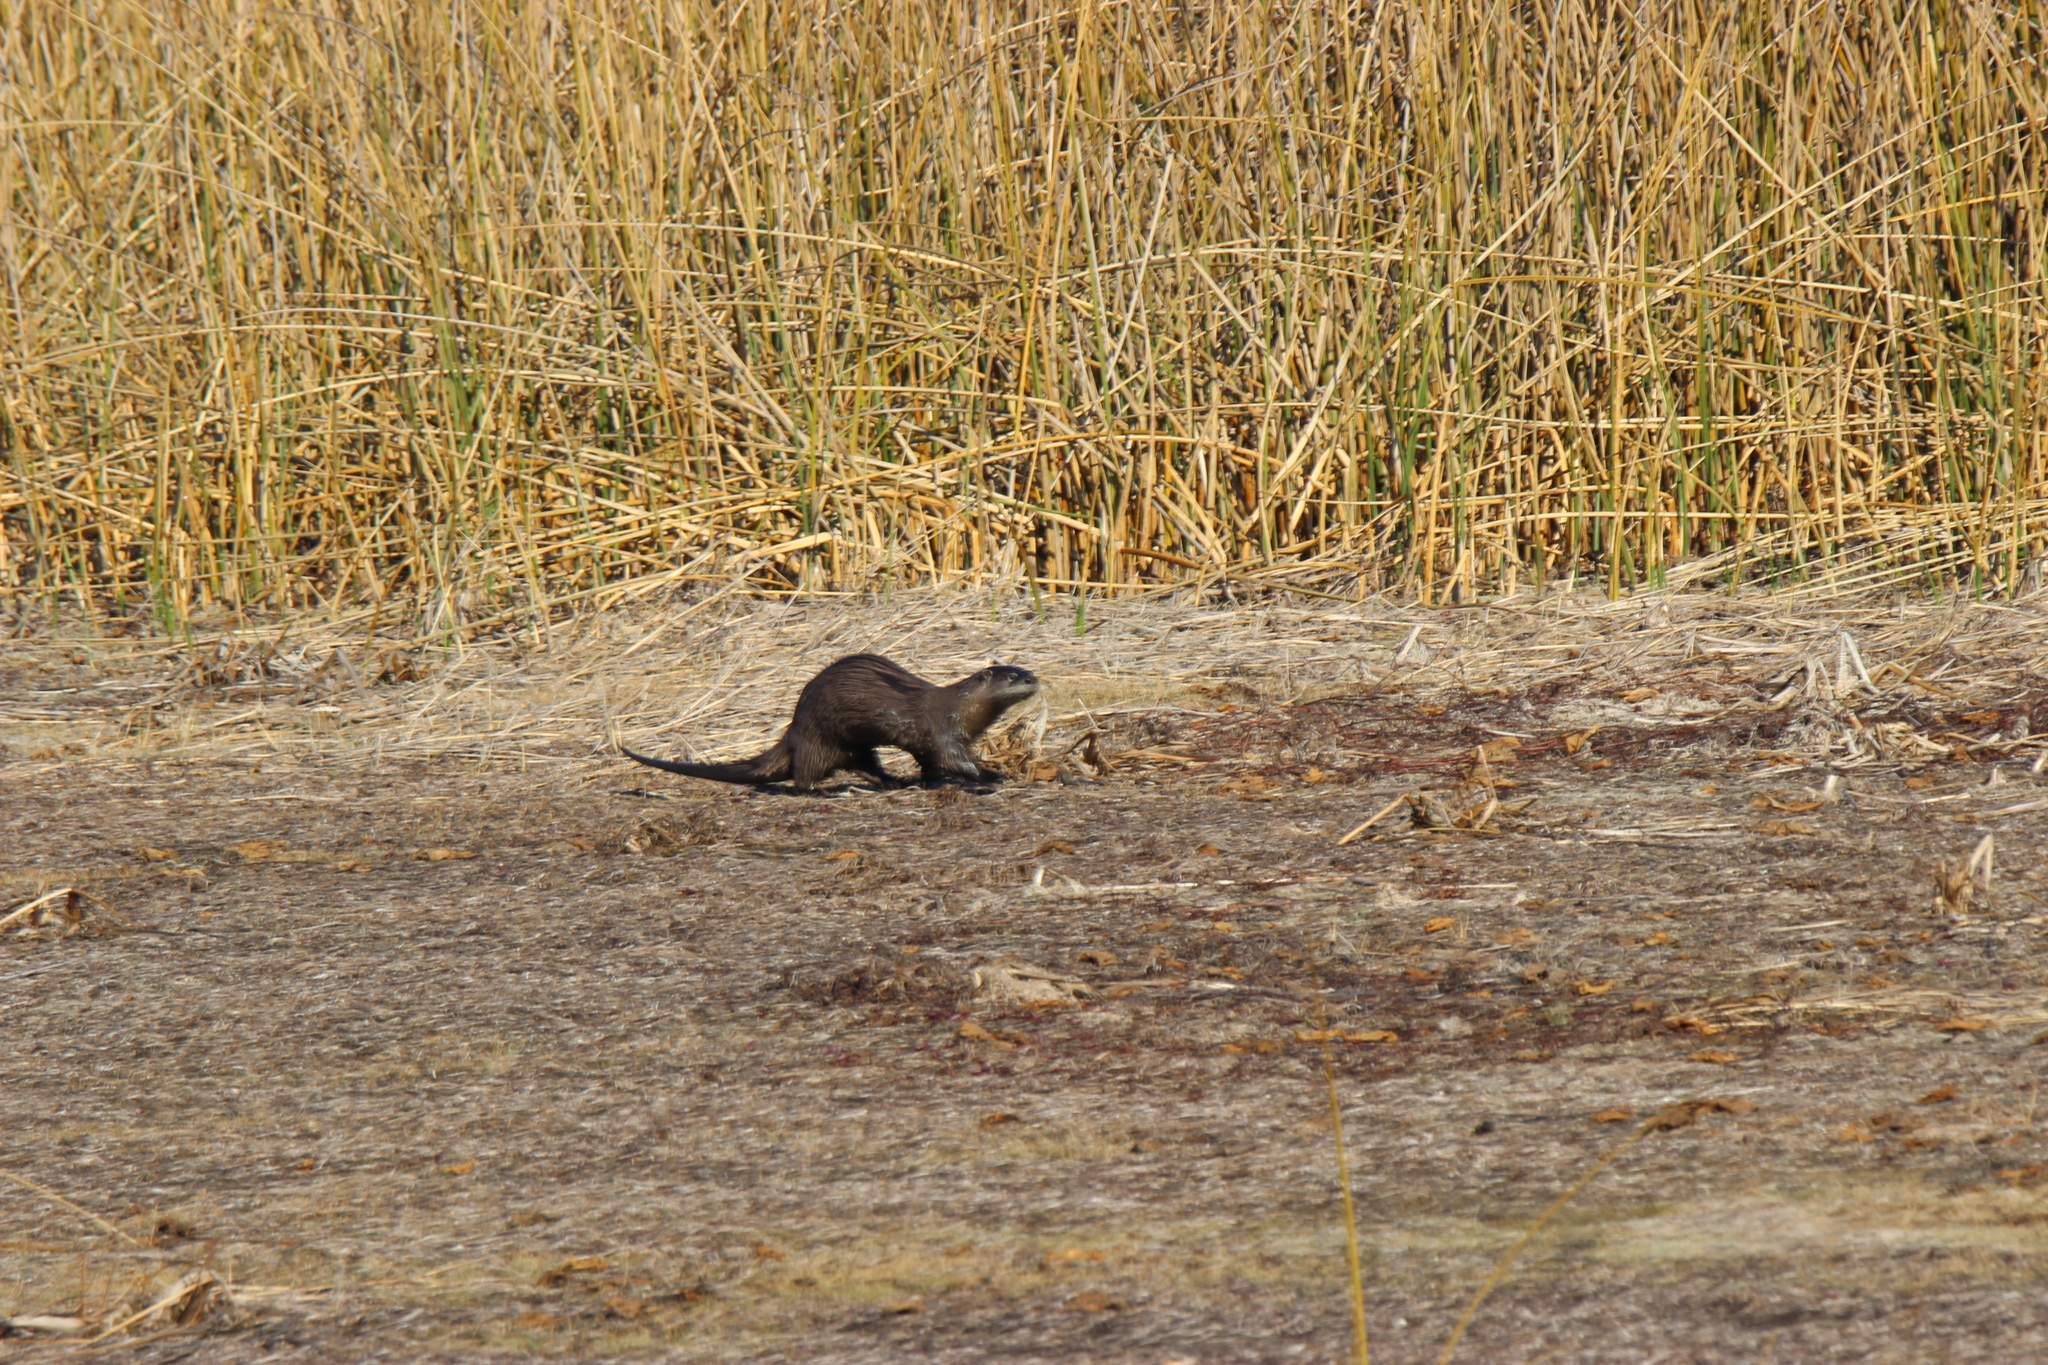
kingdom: Animalia
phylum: Chordata
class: Mammalia
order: Carnivora
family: Mustelidae
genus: Lontra
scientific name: Lontra canadensis
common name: North american river otter
